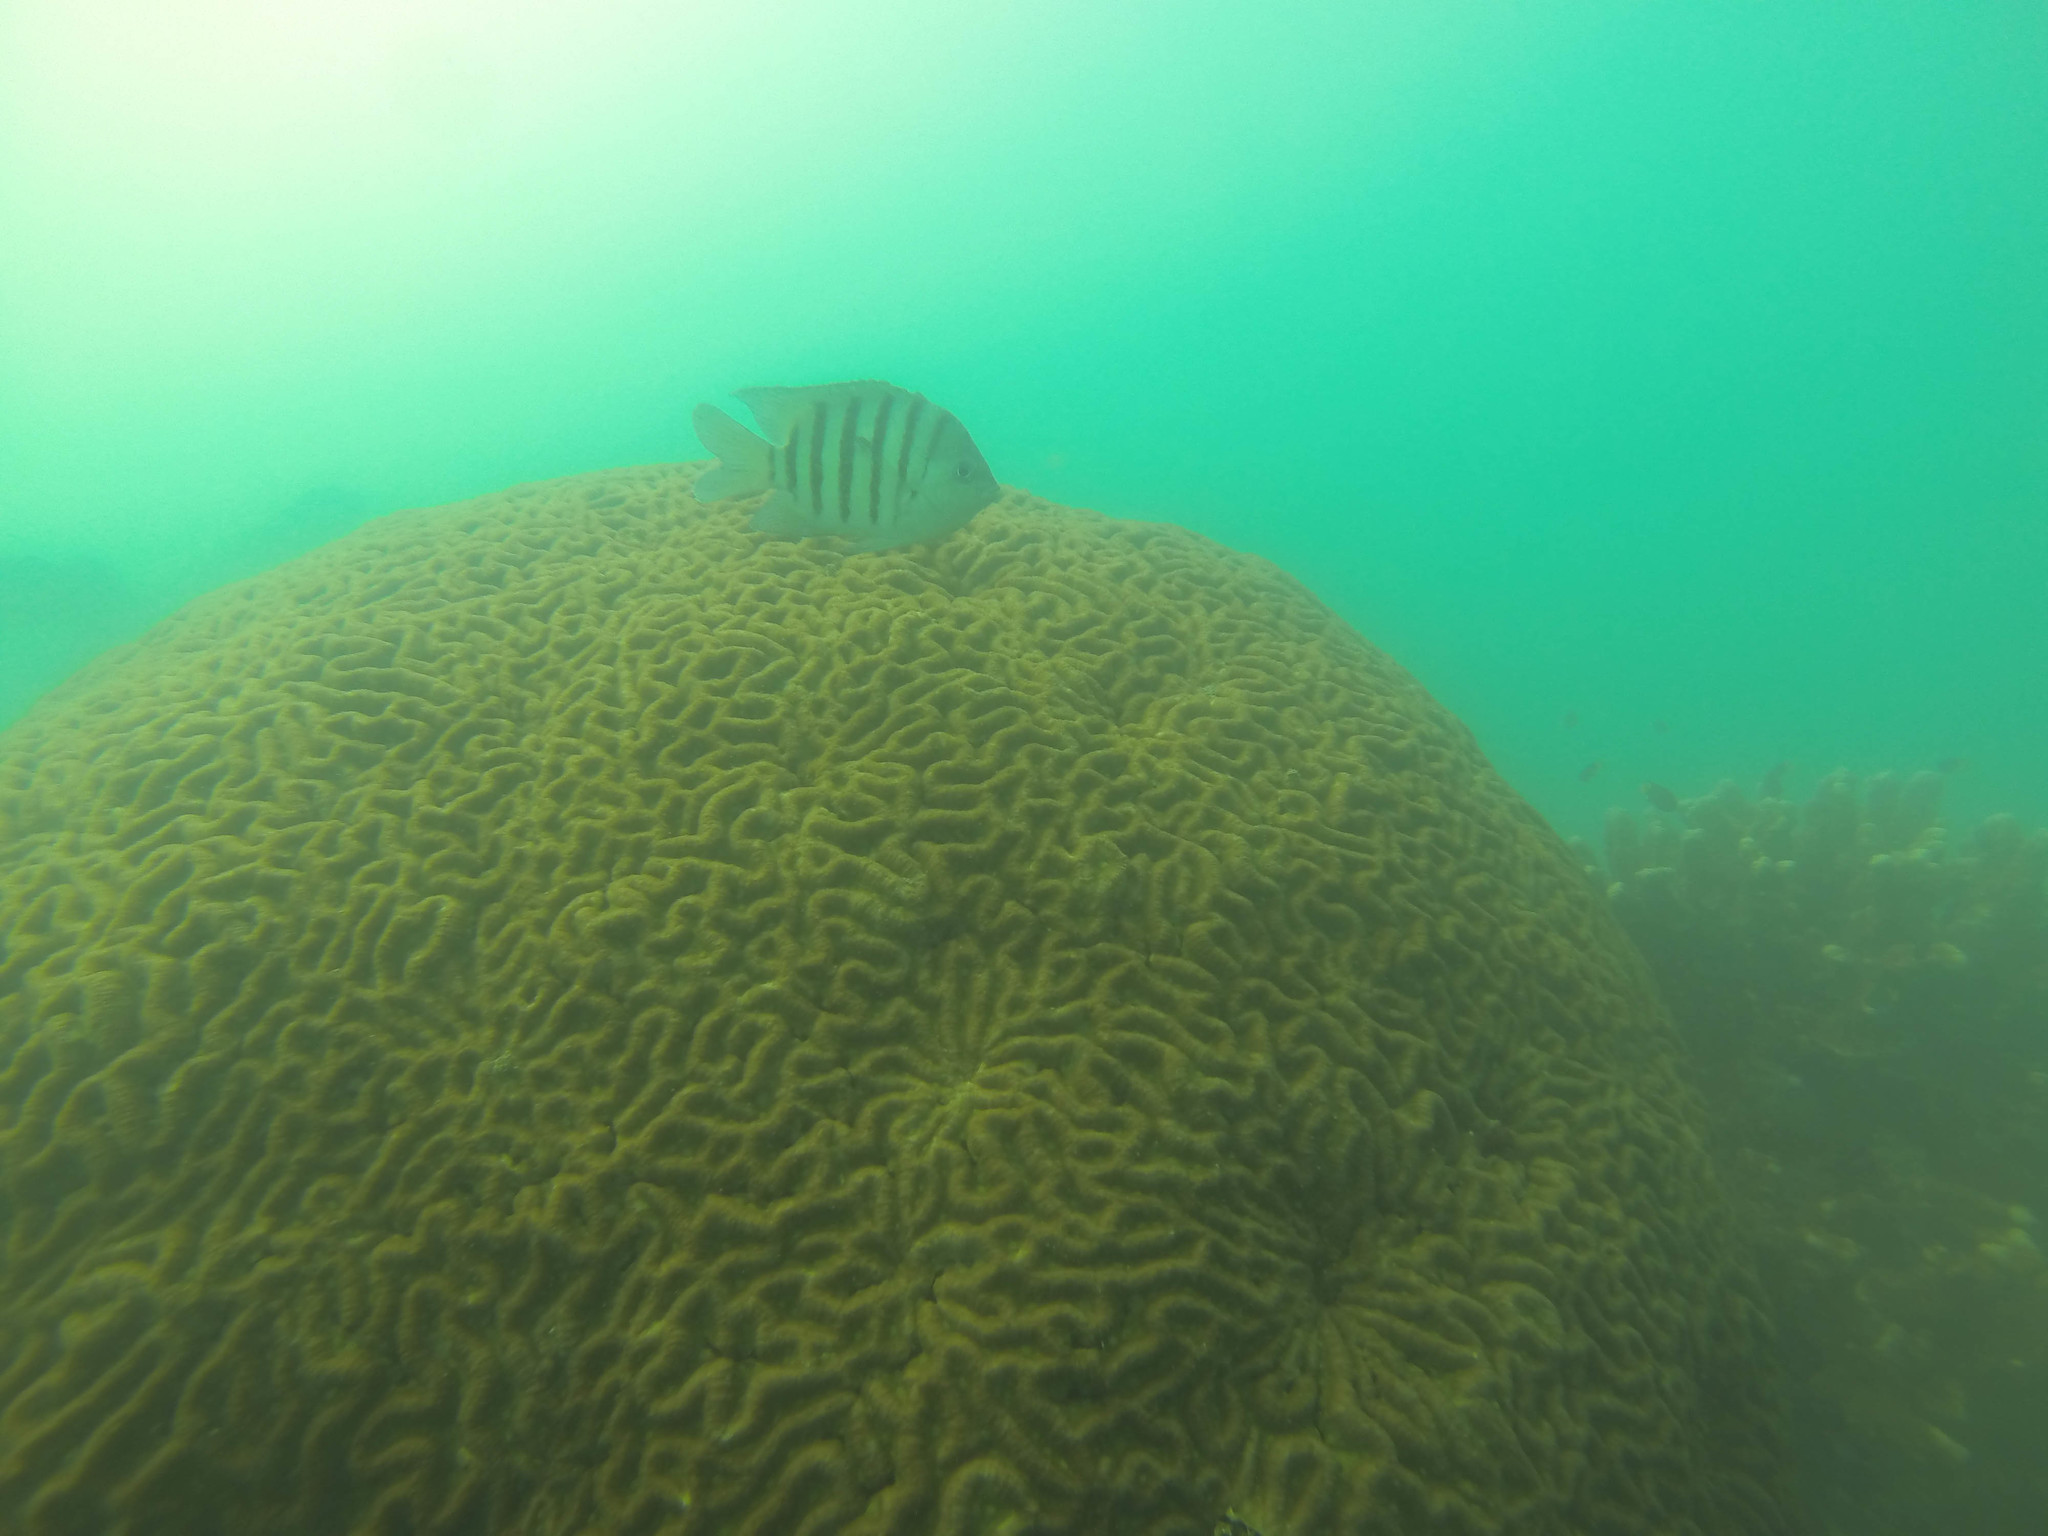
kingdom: Animalia
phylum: Chordata
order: Perciformes
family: Pomacentridae
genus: Abudefduf
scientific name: Abudefduf bengalensis
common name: Bengal sergeant
